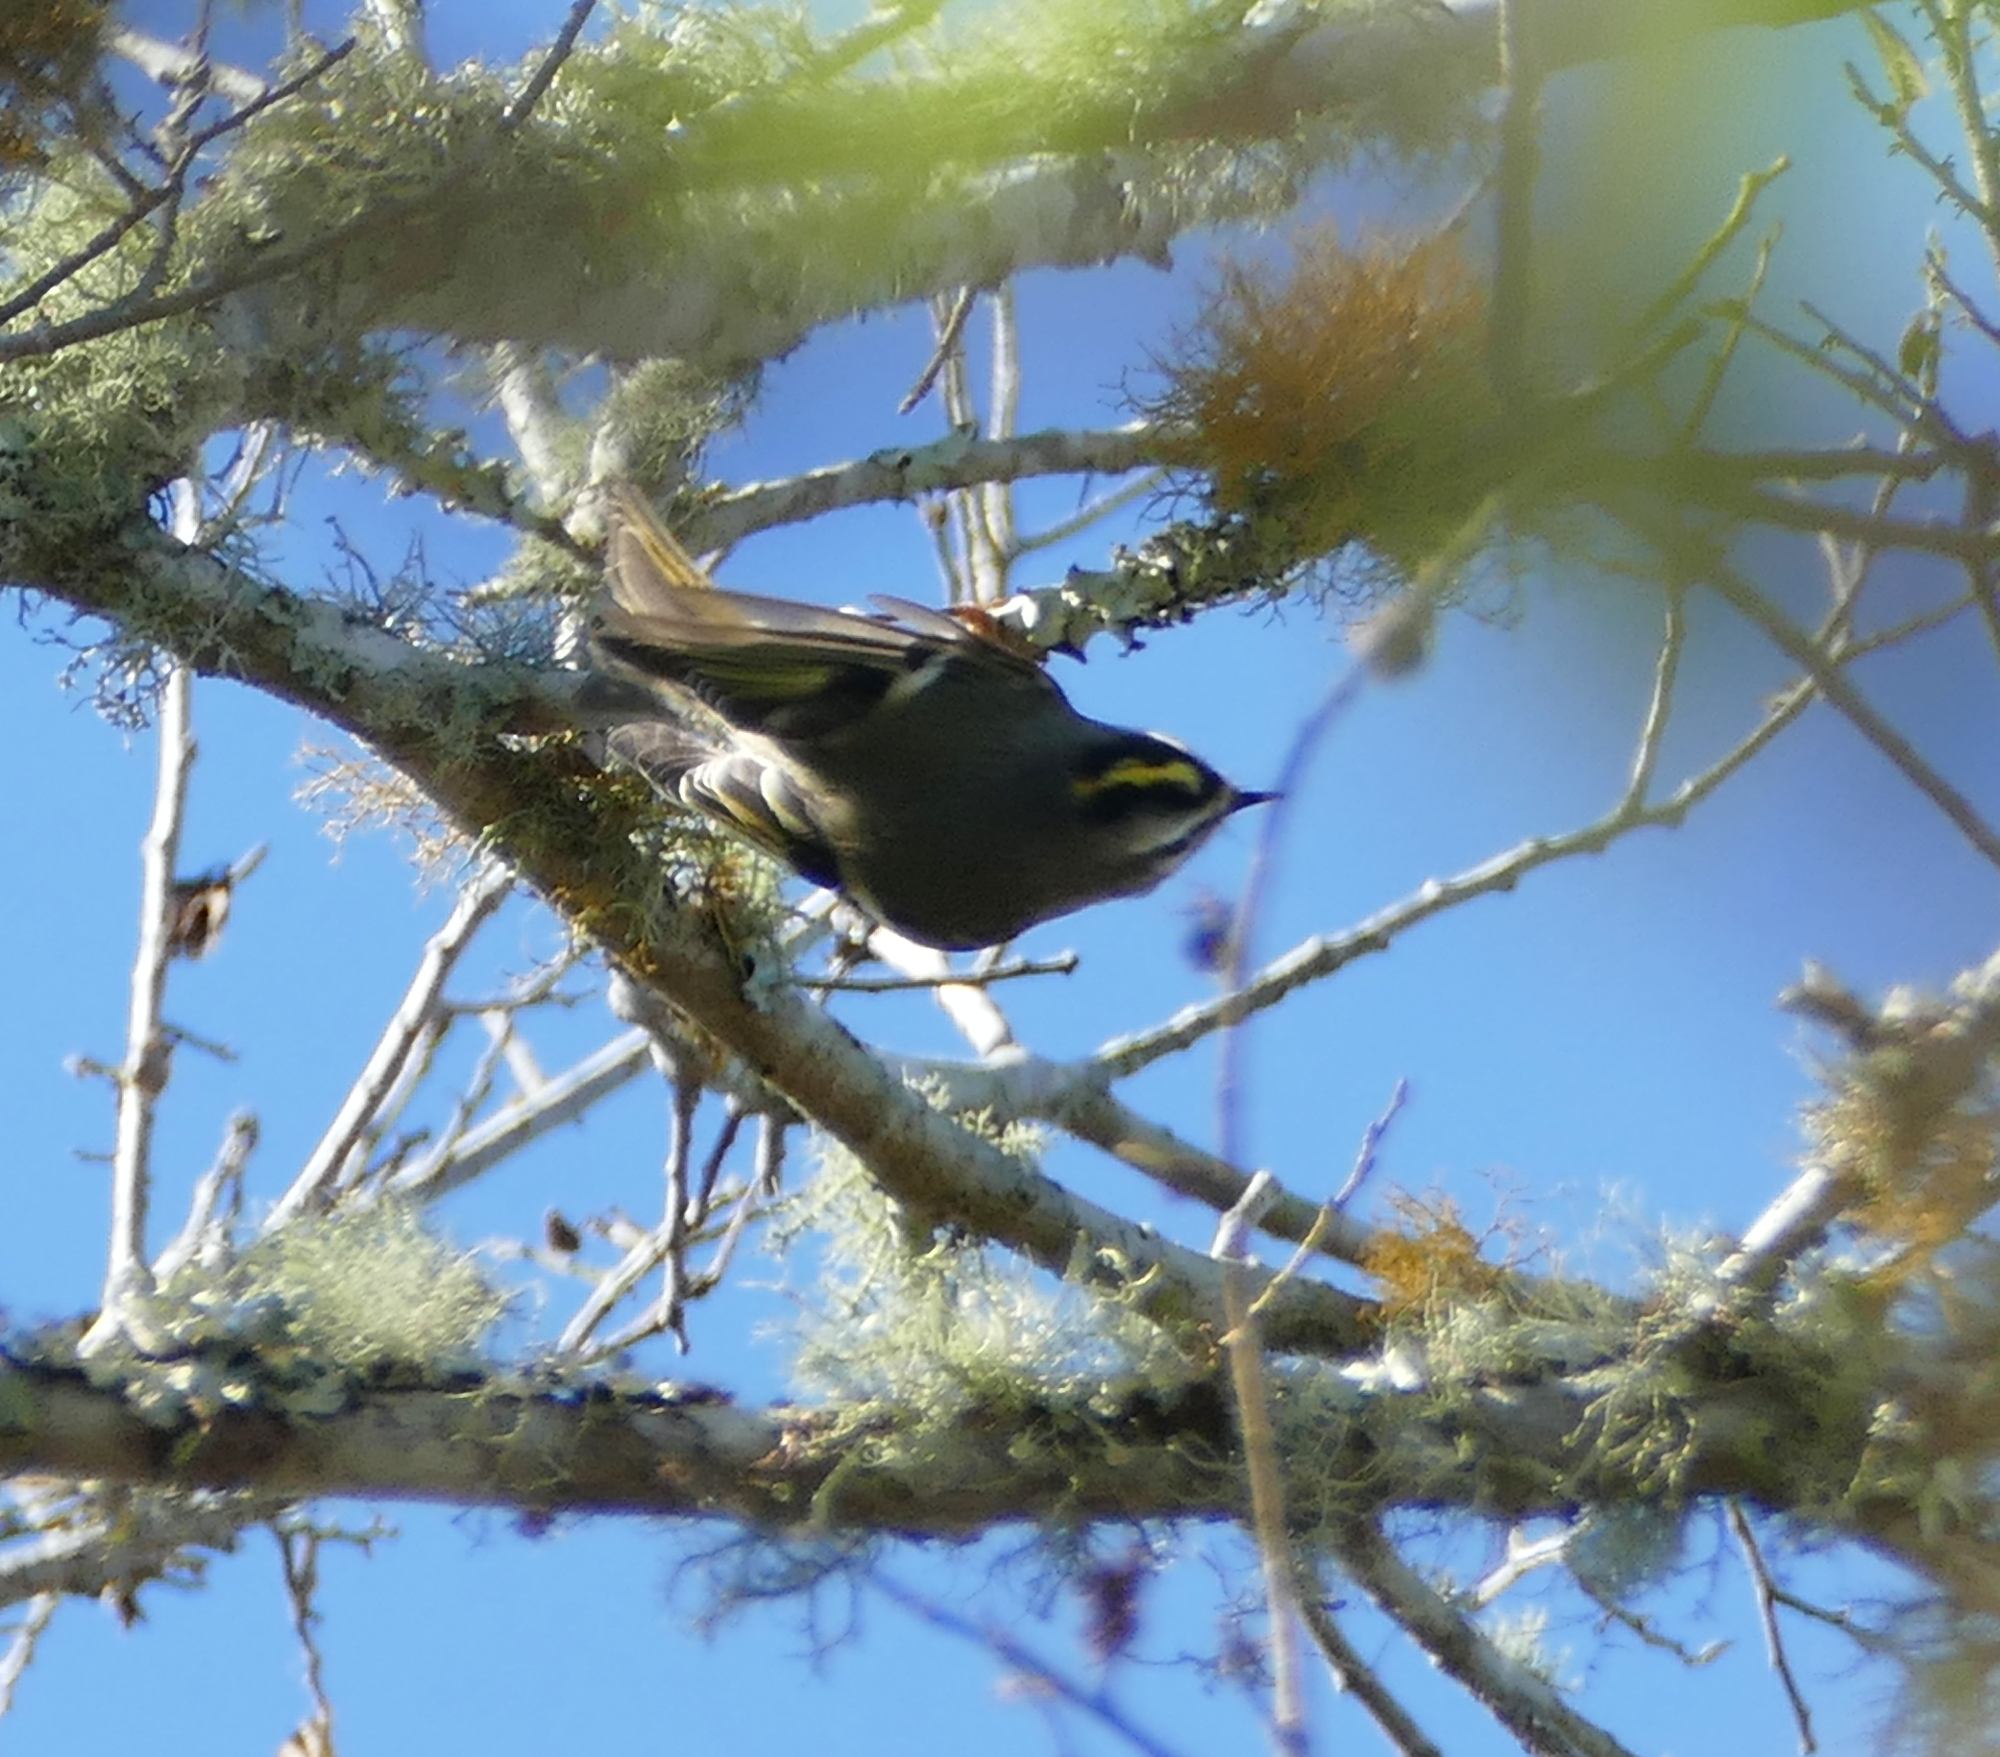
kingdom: Animalia
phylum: Chordata
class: Aves
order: Passeriformes
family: Regulidae
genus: Regulus
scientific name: Regulus satrapa
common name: Golden-crowned kinglet
